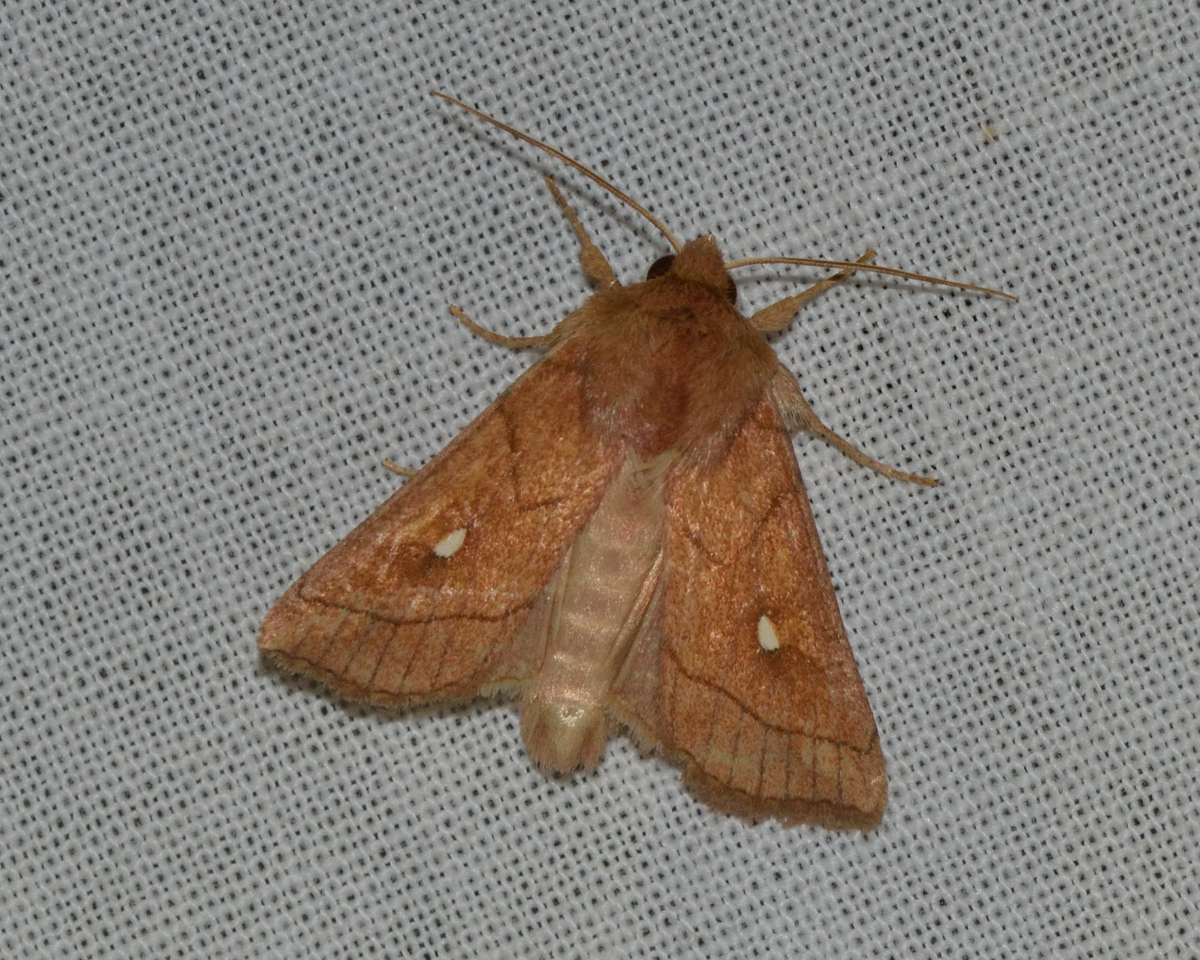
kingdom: Animalia
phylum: Arthropoda
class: Insecta
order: Lepidoptera
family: Noctuidae
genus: Mythimna
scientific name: Mythimna conigera
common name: Brown-line bright-eye
